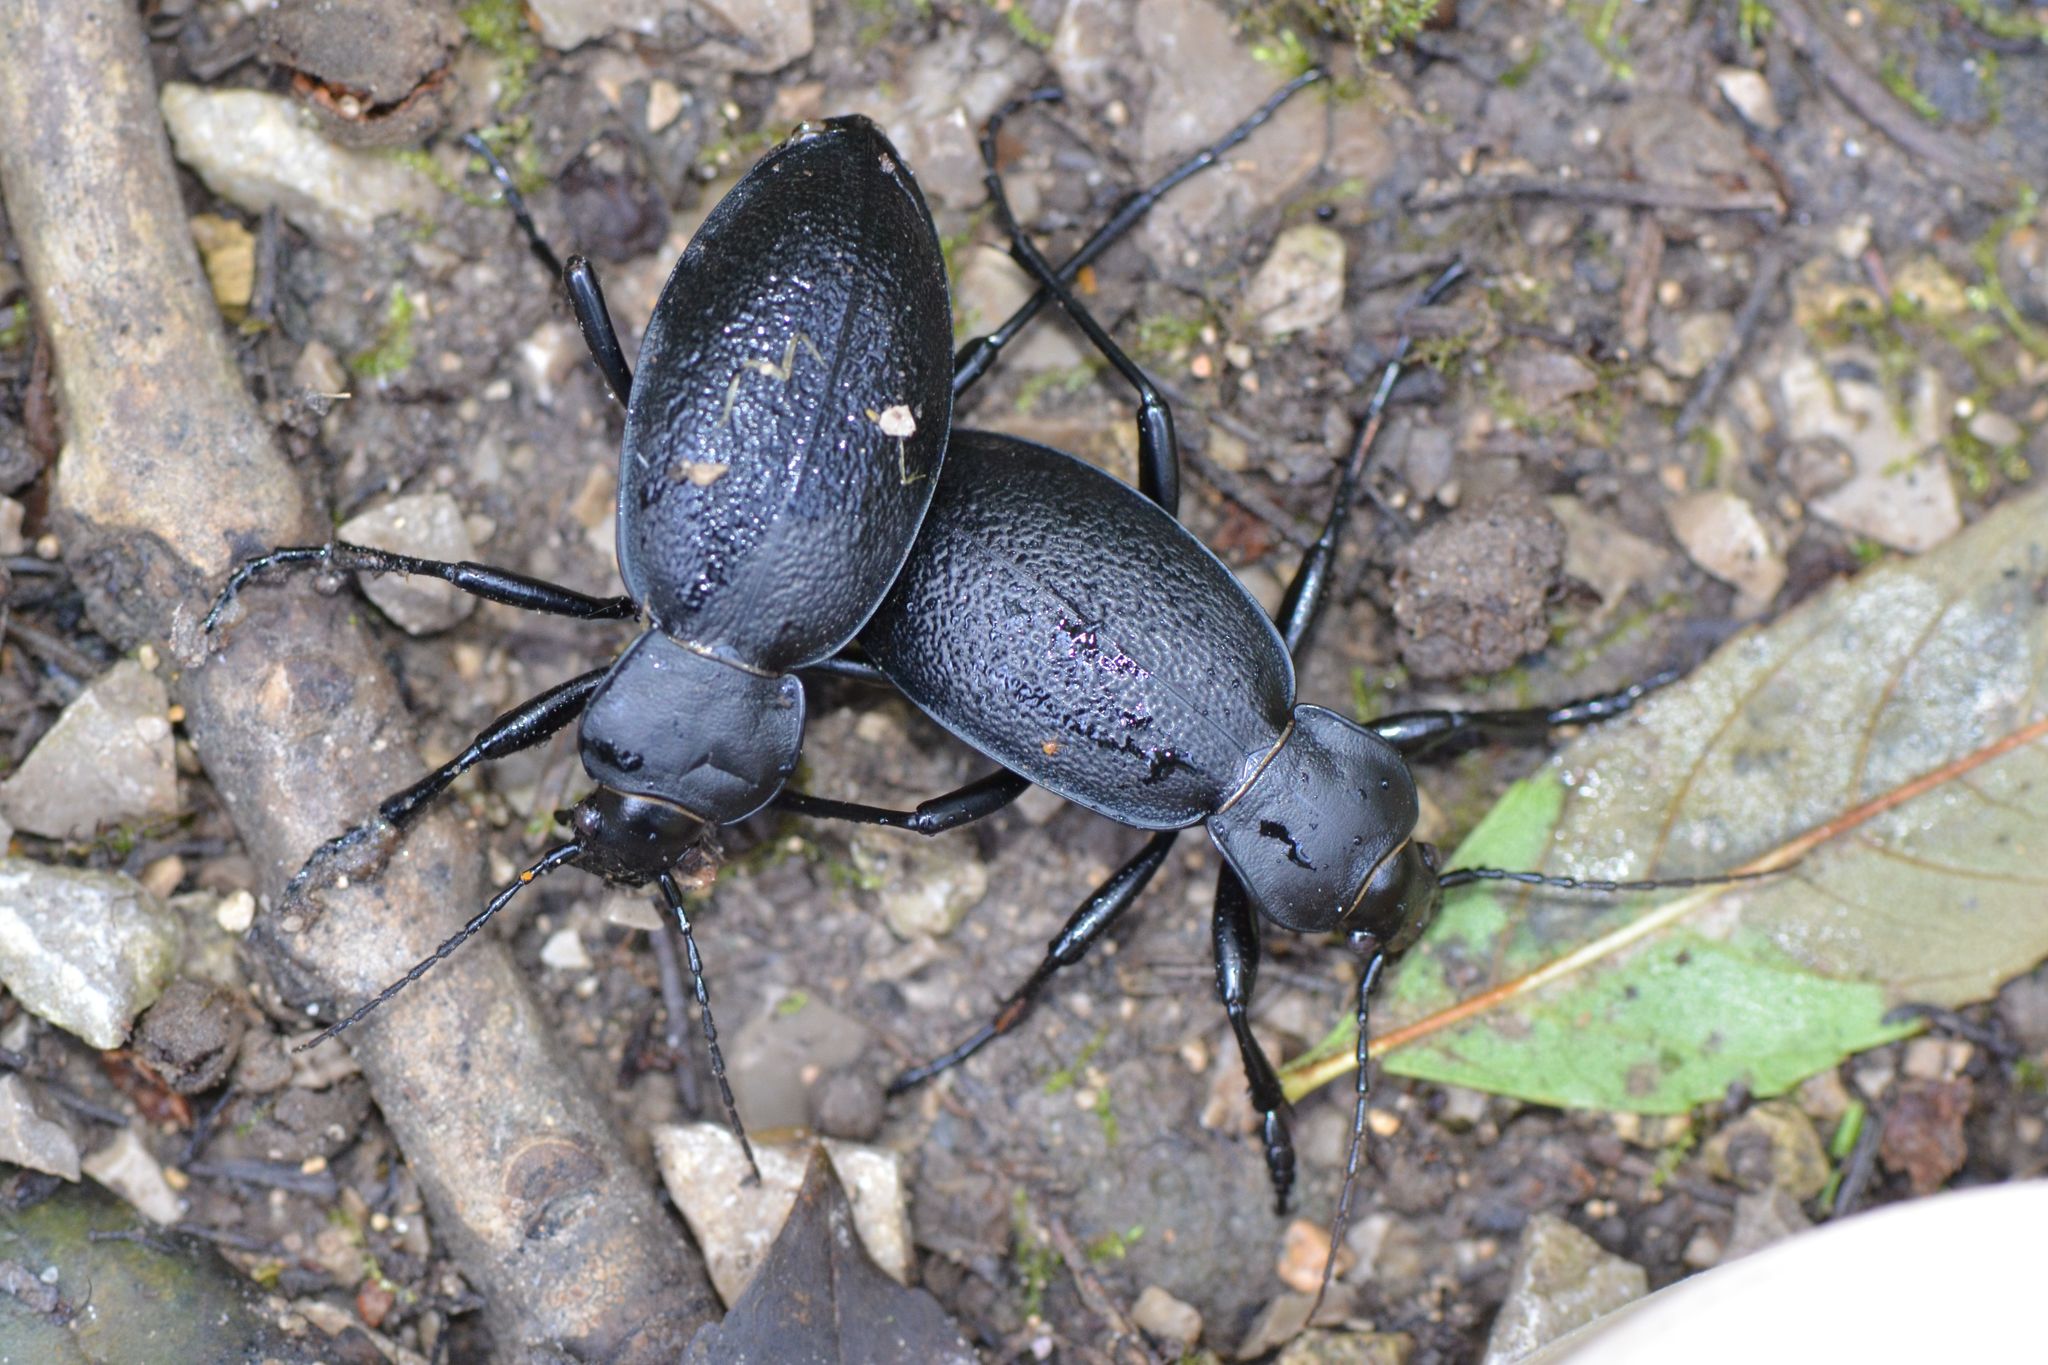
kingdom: Animalia
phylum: Arthropoda
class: Insecta
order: Coleoptera
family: Carabidae
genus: Carabus
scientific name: Carabus coriaceus
